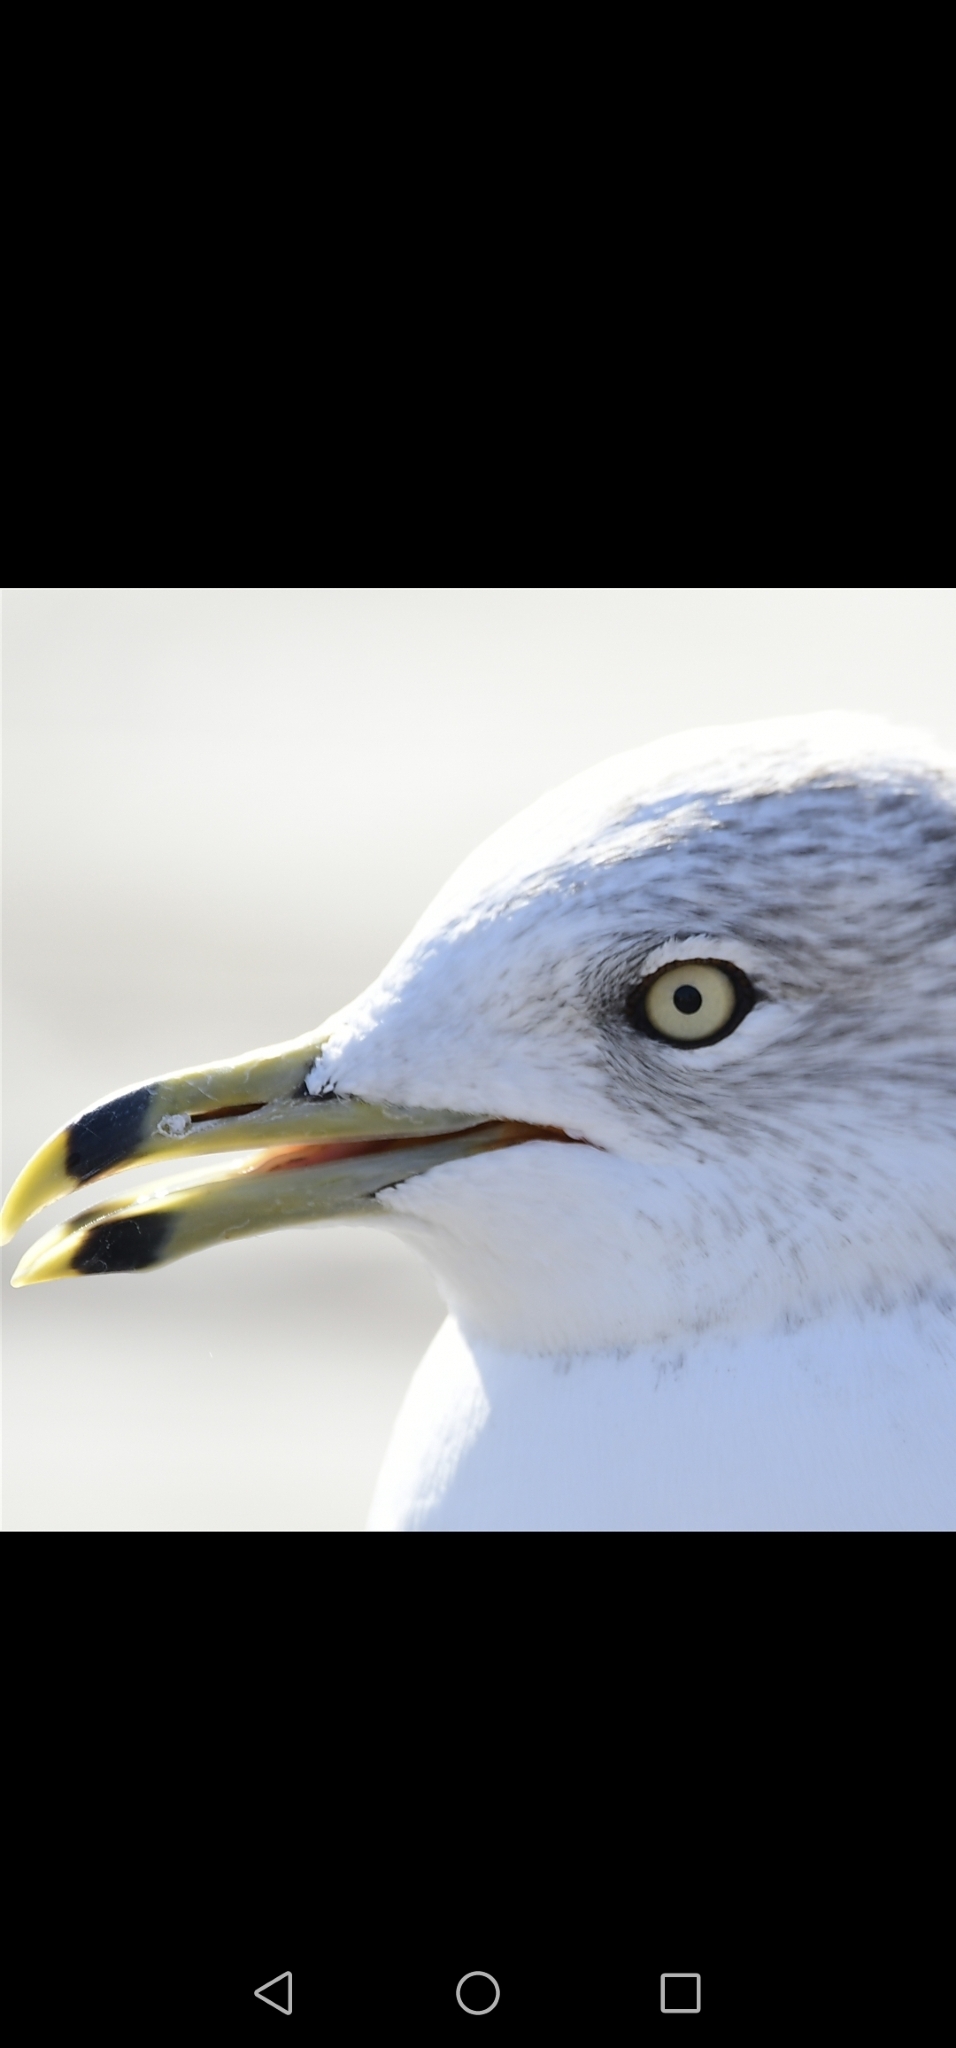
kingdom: Animalia
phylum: Chordata
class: Aves
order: Charadriiformes
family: Laridae
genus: Larus
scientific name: Larus delawarensis
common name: Ring-billed gull
